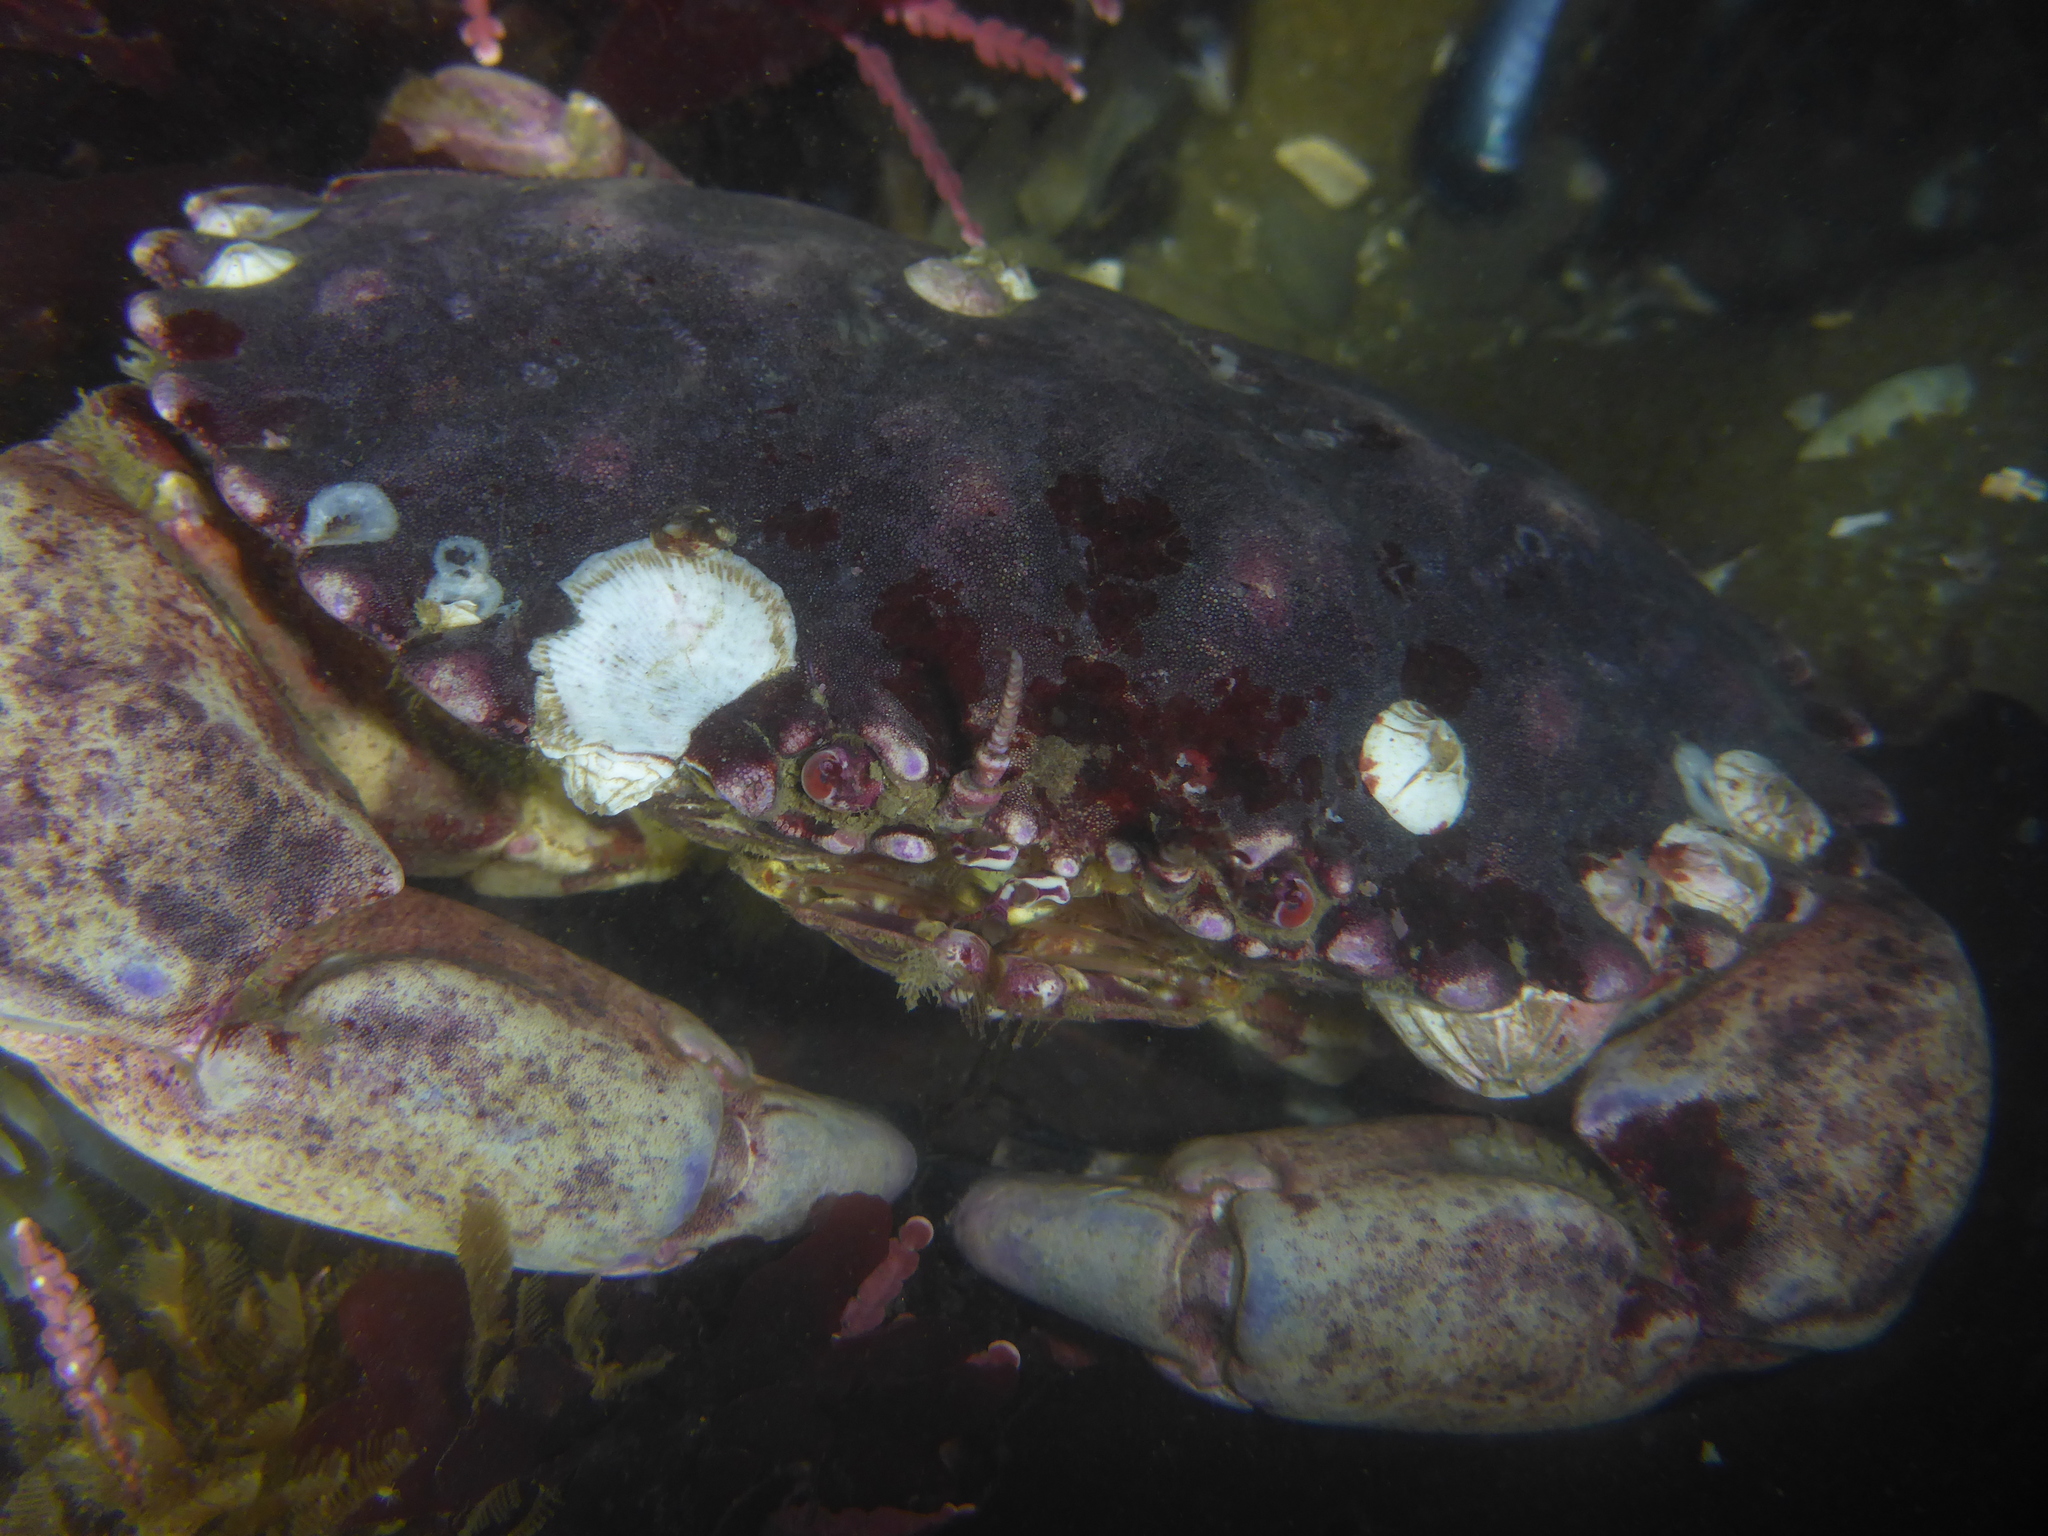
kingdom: Animalia
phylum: Arthropoda
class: Malacostraca
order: Decapoda
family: Cancridae
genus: Romaleon
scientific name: Romaleon antennarium
